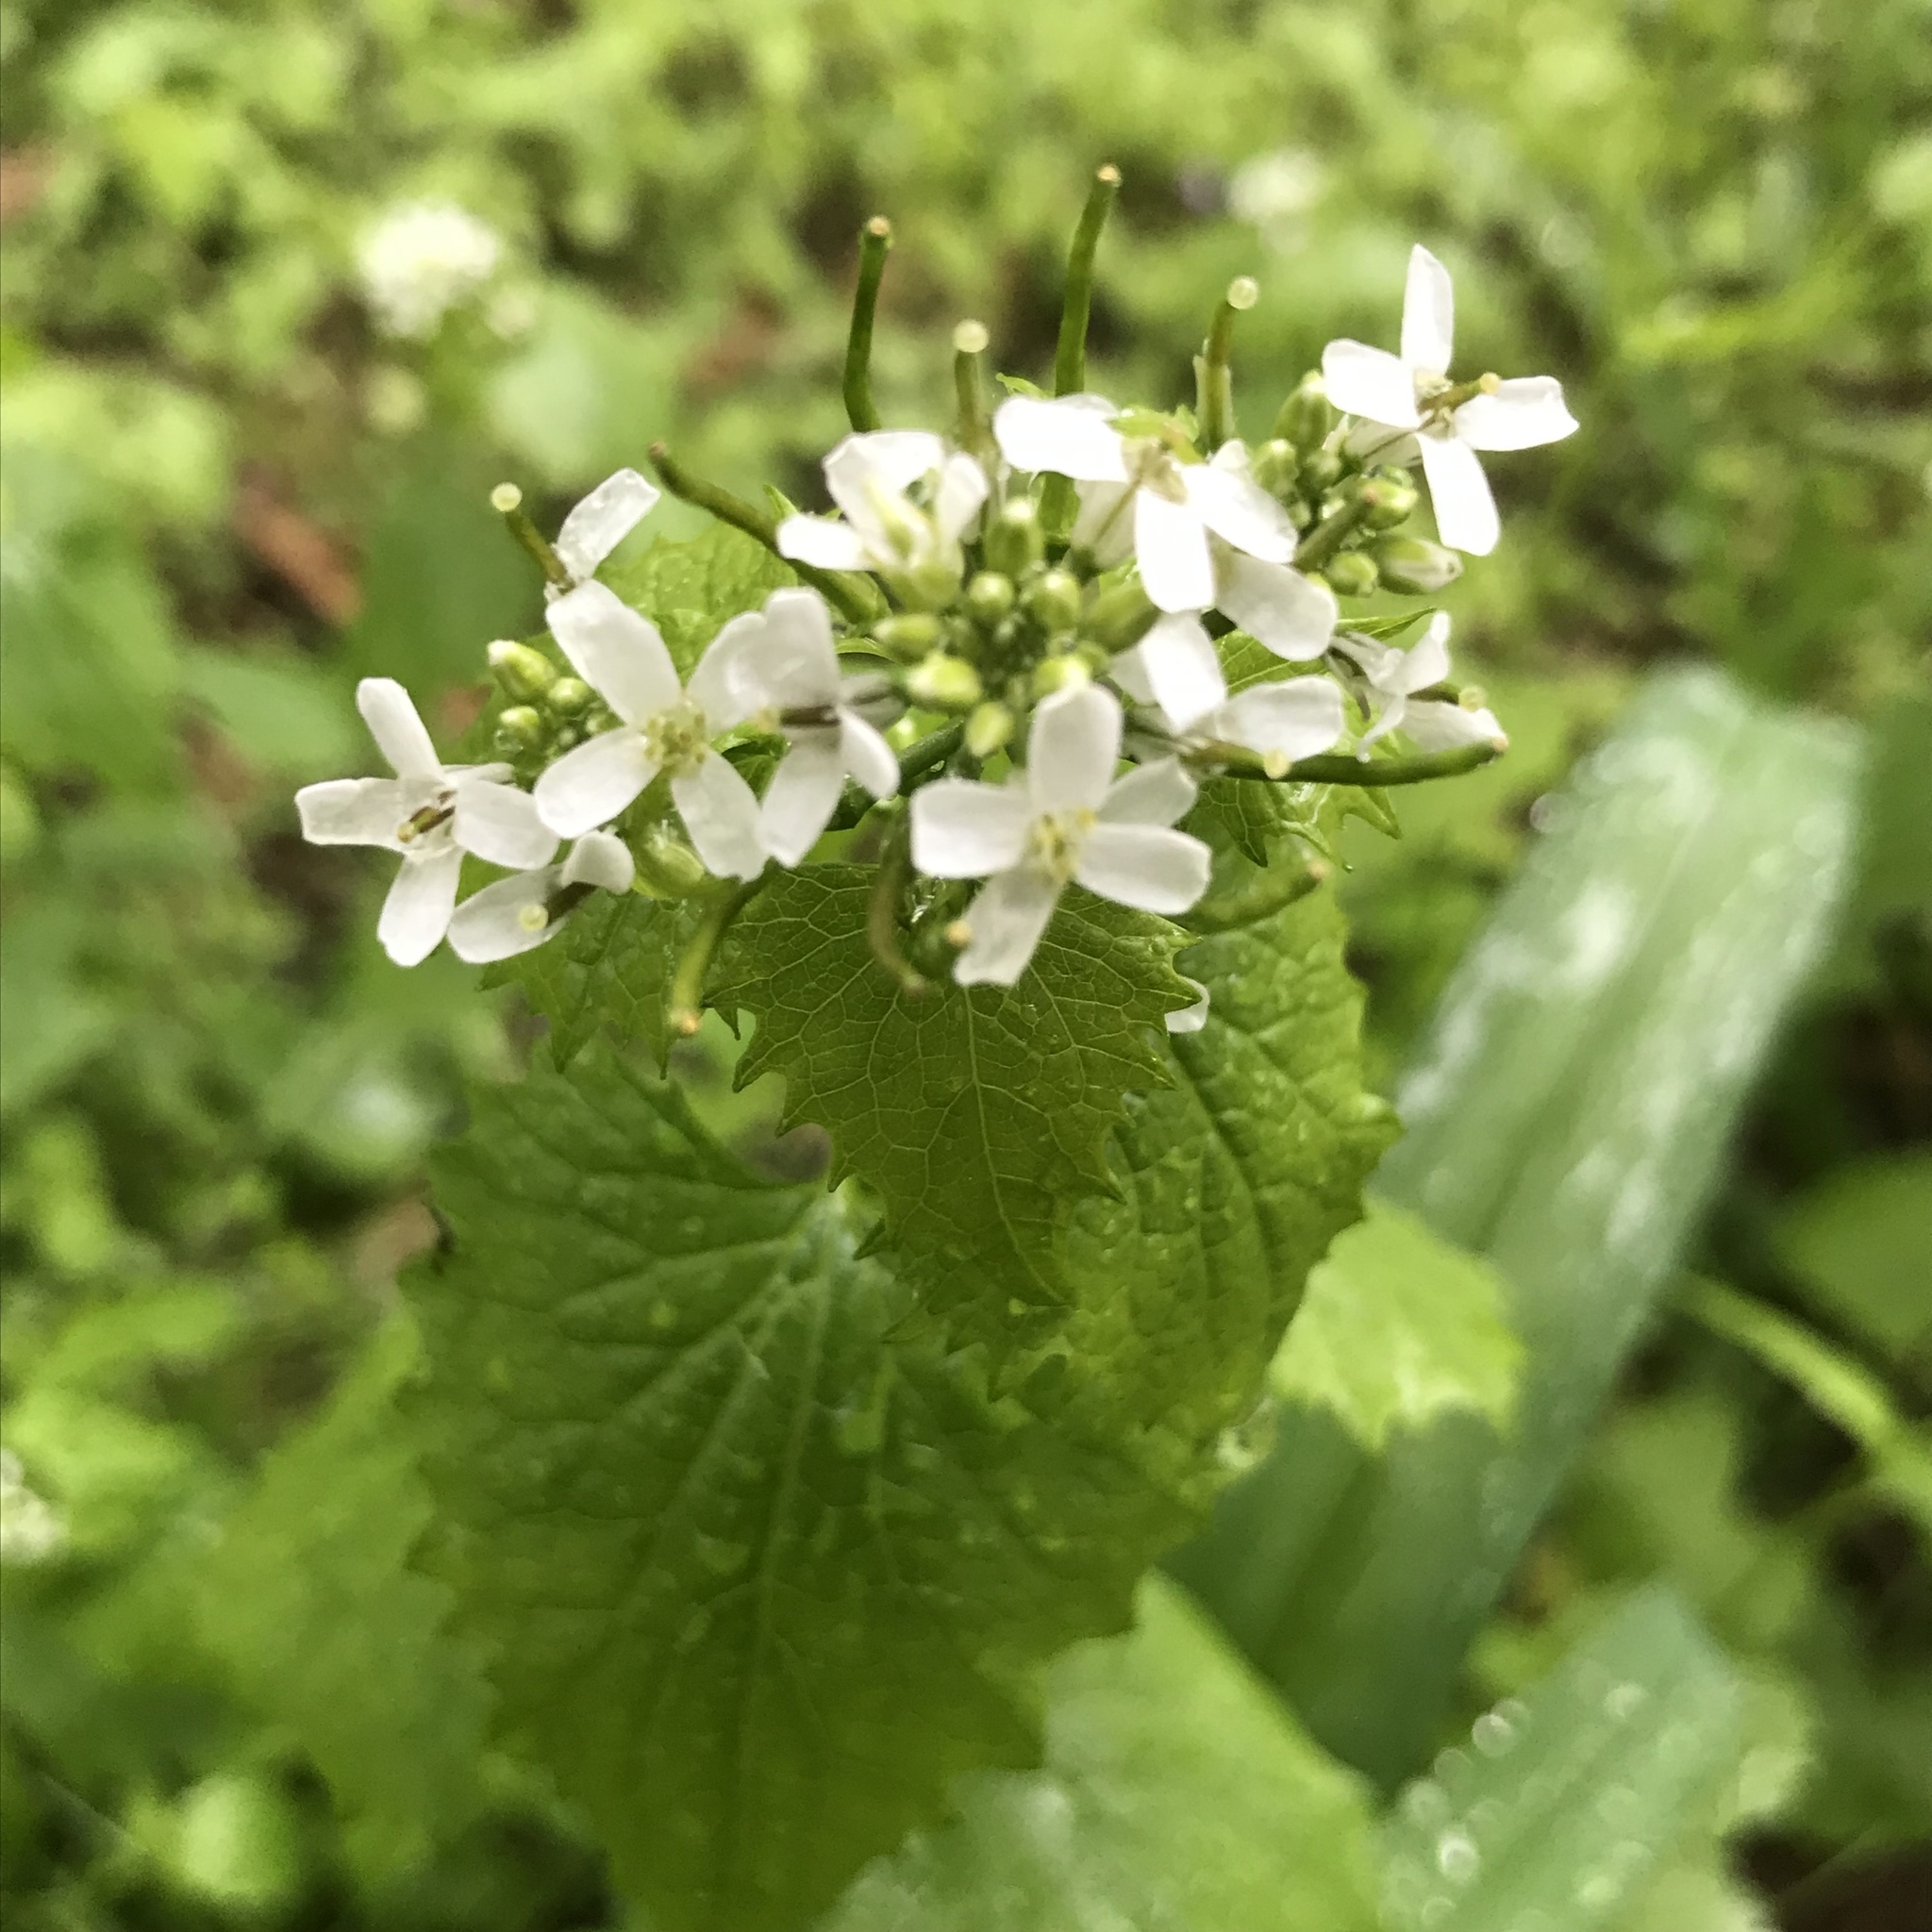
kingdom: Plantae
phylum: Tracheophyta
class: Magnoliopsida
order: Brassicales
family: Brassicaceae
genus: Alliaria
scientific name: Alliaria petiolata
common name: Garlic mustard
